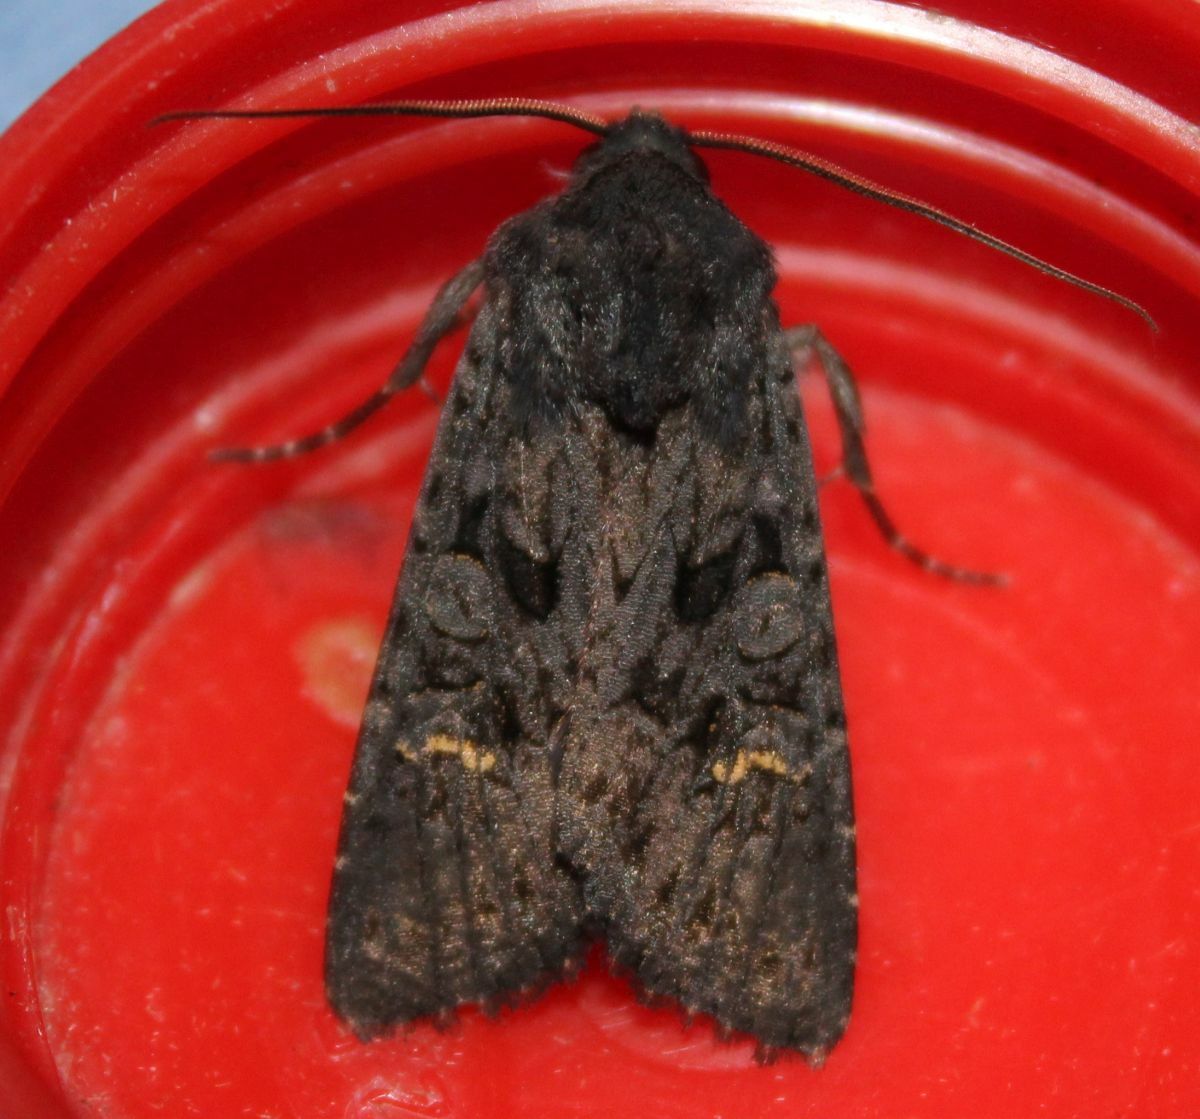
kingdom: Animalia
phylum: Arthropoda
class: Insecta
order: Lepidoptera
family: Noctuidae
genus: Aporophyla
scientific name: Aporophyla nigra
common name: Black rustic
